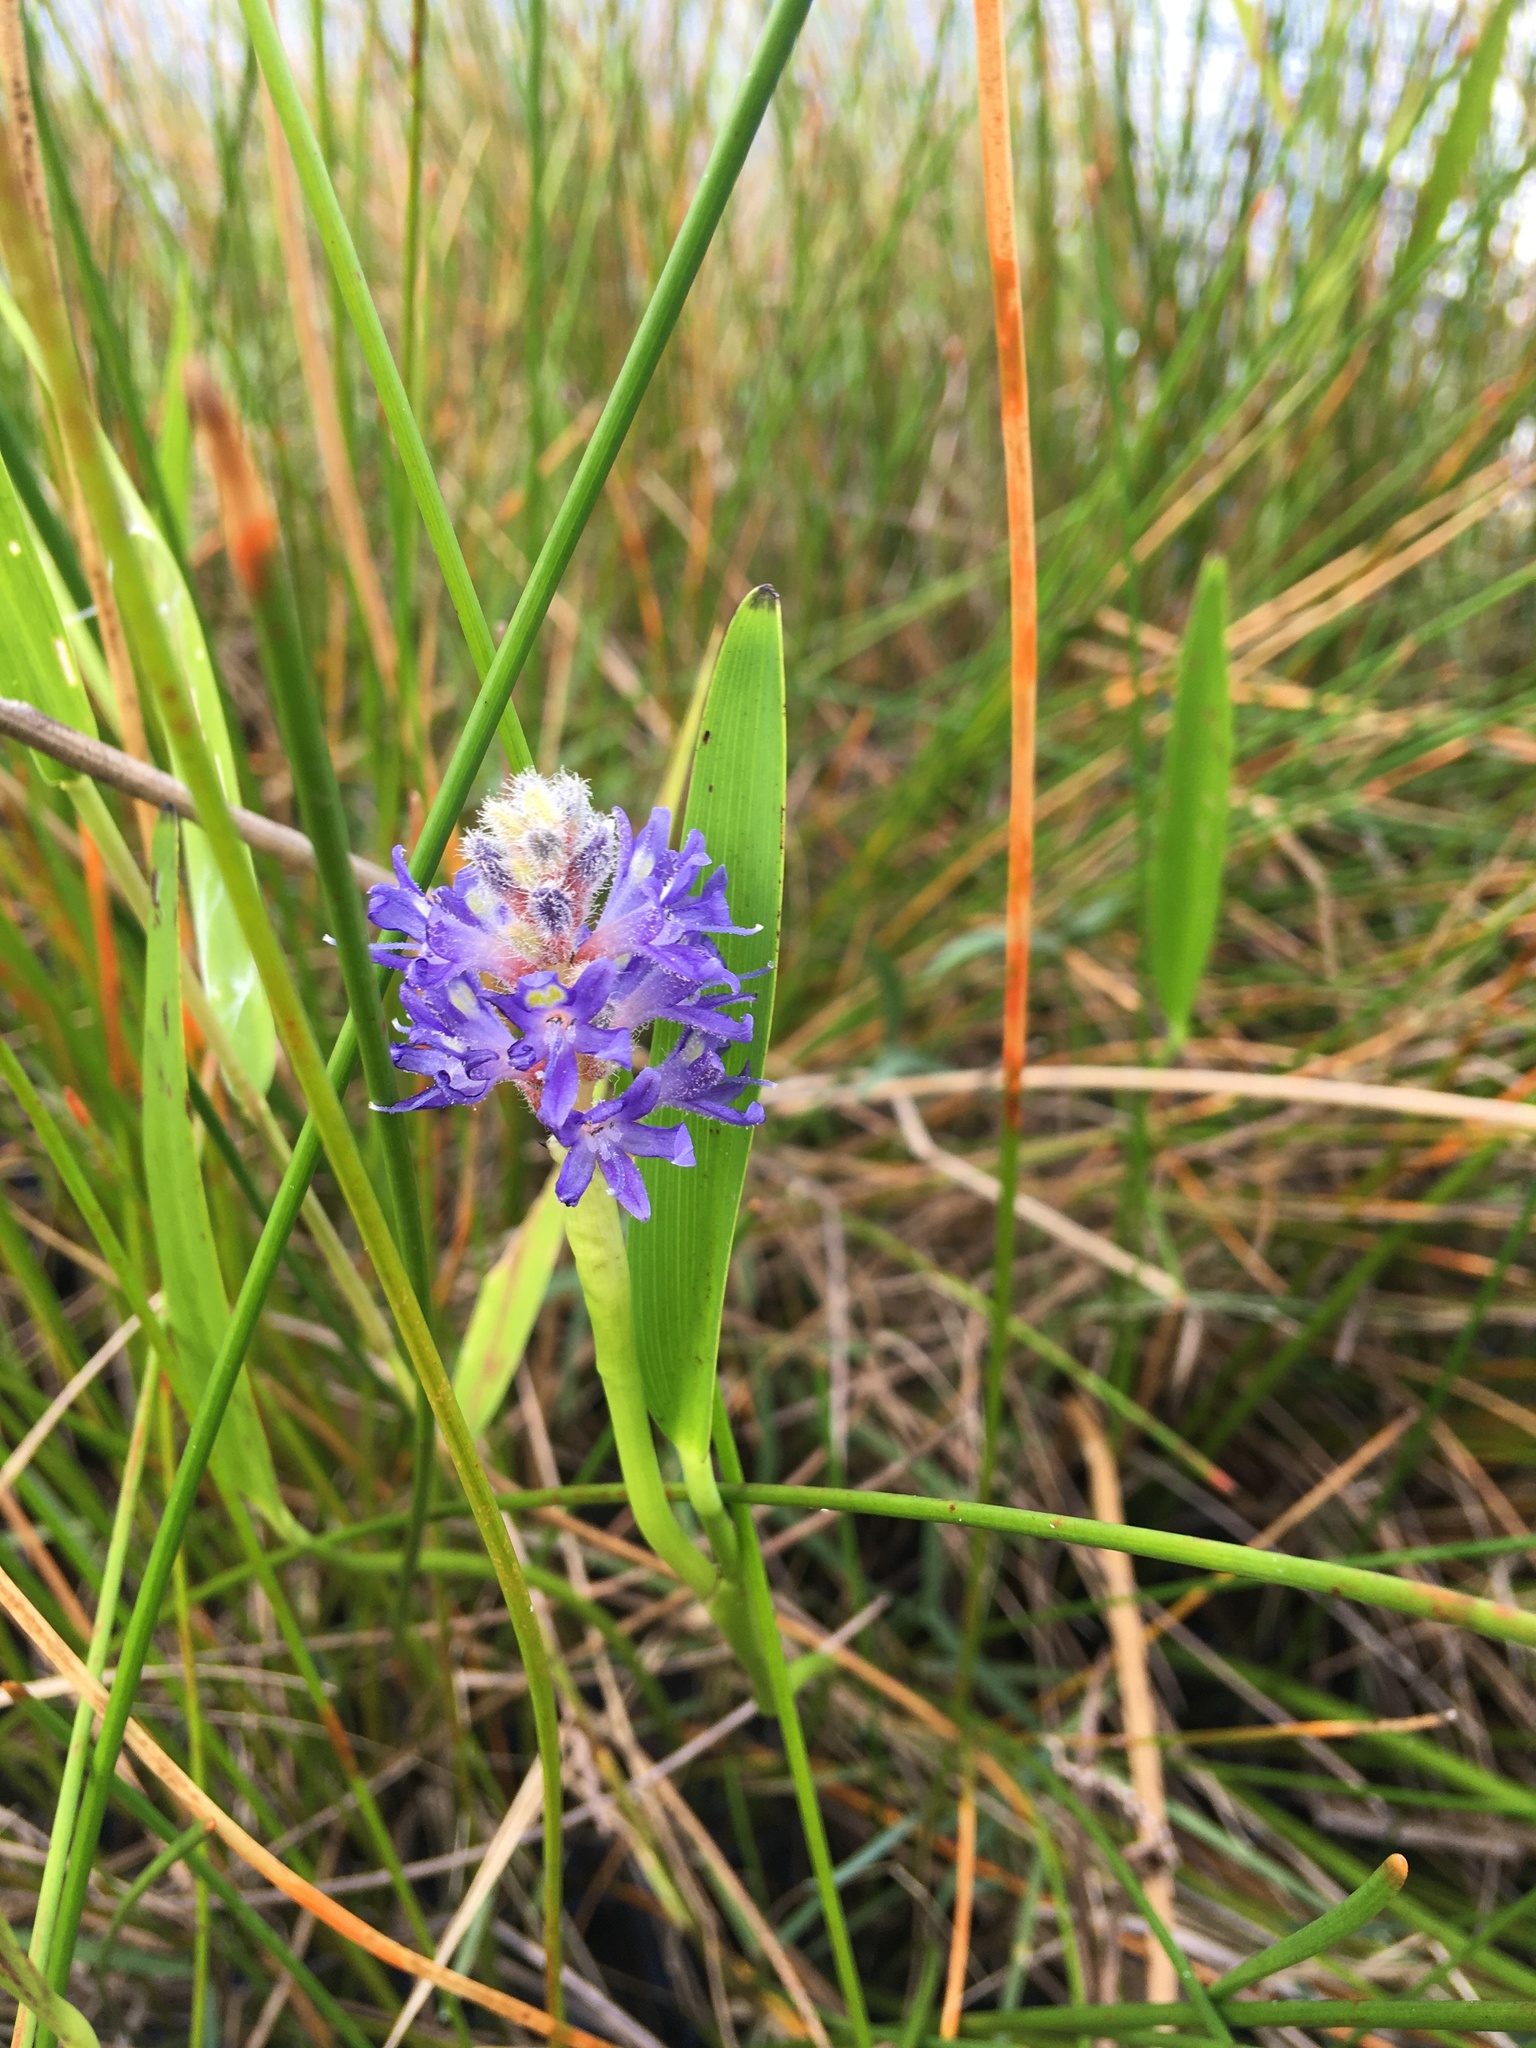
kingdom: Plantae
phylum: Tracheophyta
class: Liliopsida
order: Commelinales
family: Pontederiaceae
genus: Pontederia
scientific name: Pontederia cordata
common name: Pickerelweed
